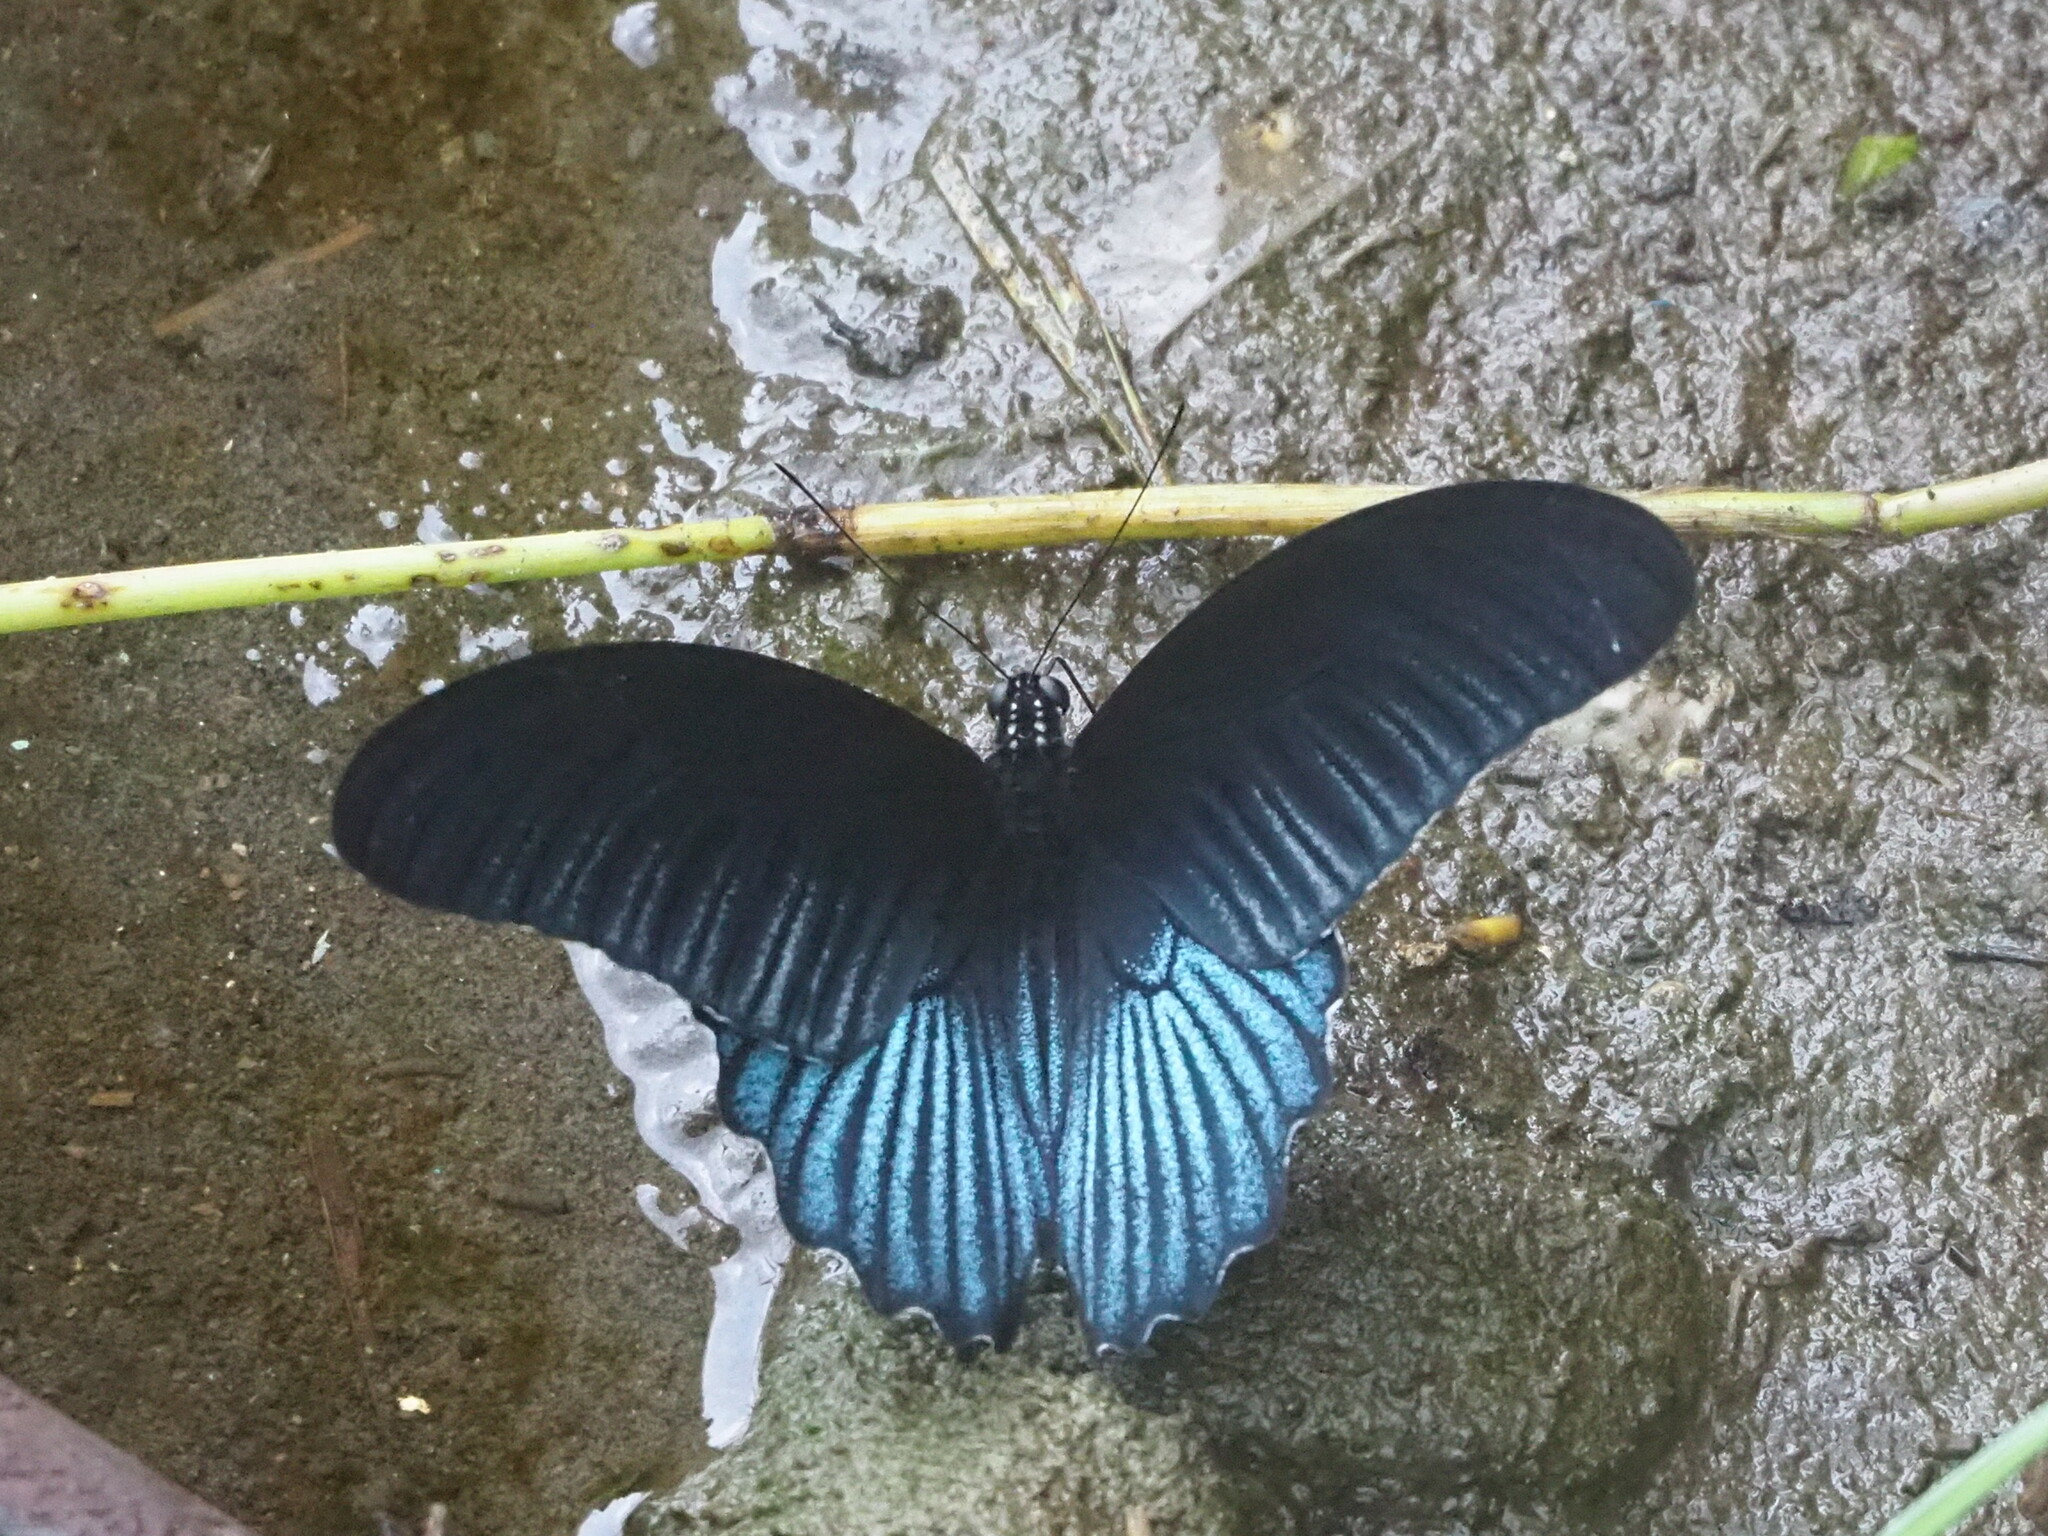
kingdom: Animalia
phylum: Arthropoda
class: Insecta
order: Lepidoptera
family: Papilionidae
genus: Papilio
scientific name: Papilio memnon
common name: Great mormon
